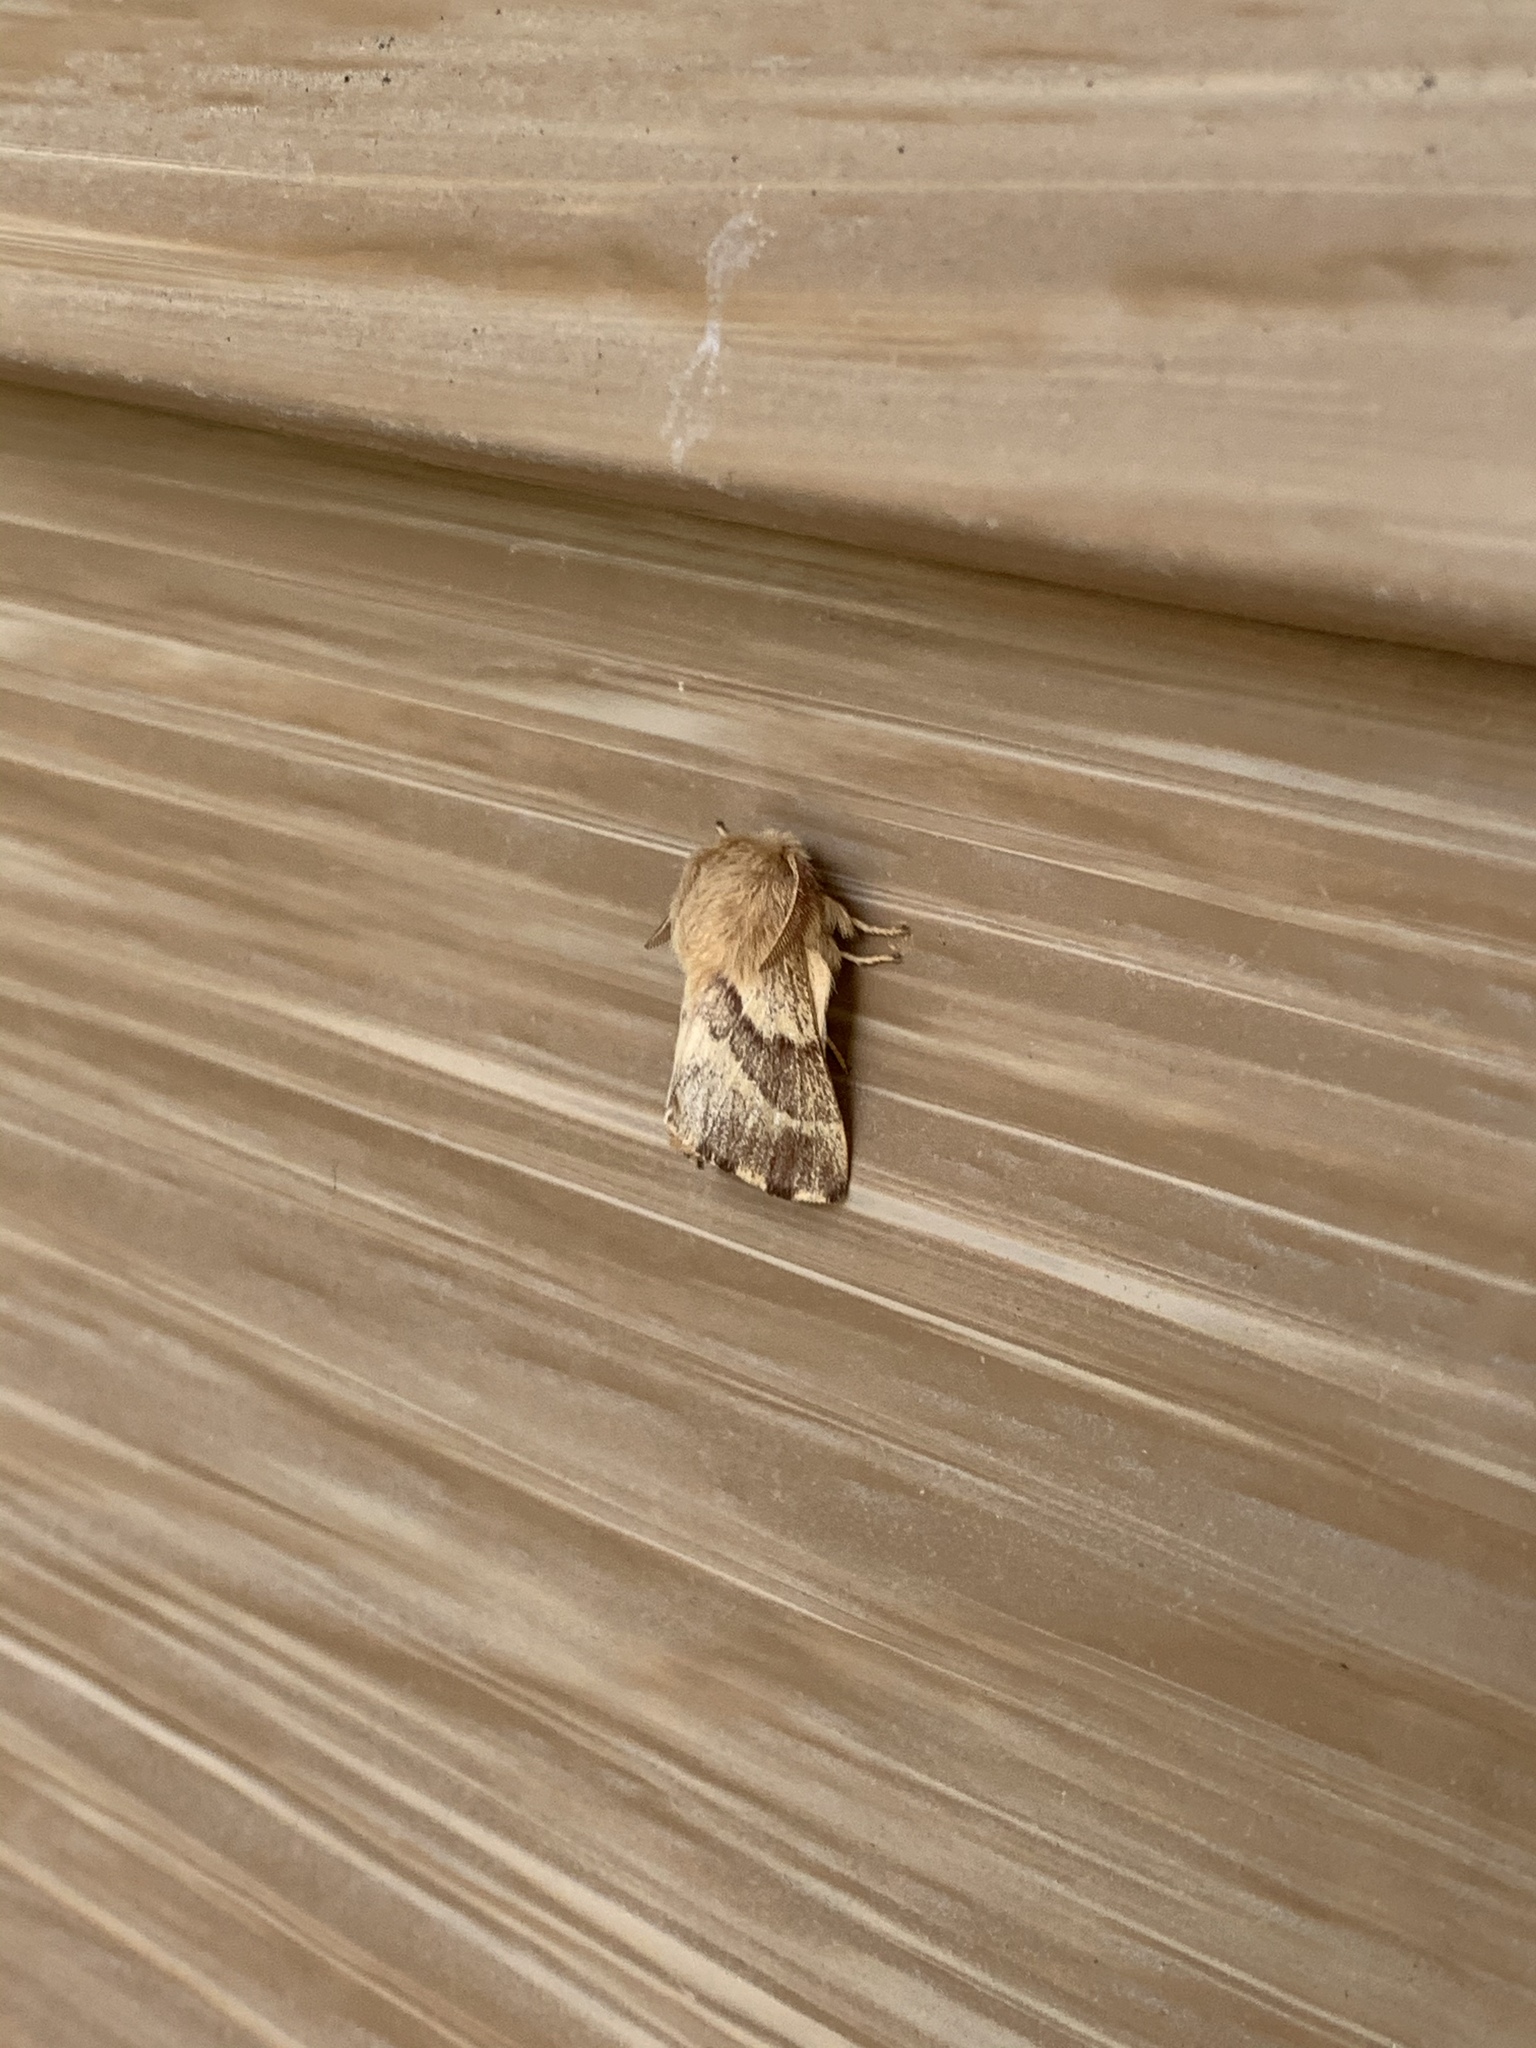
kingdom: Animalia
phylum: Arthropoda
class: Insecta
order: Lepidoptera
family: Lasiocampidae
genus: Malacosoma
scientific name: Malacosoma incurva
